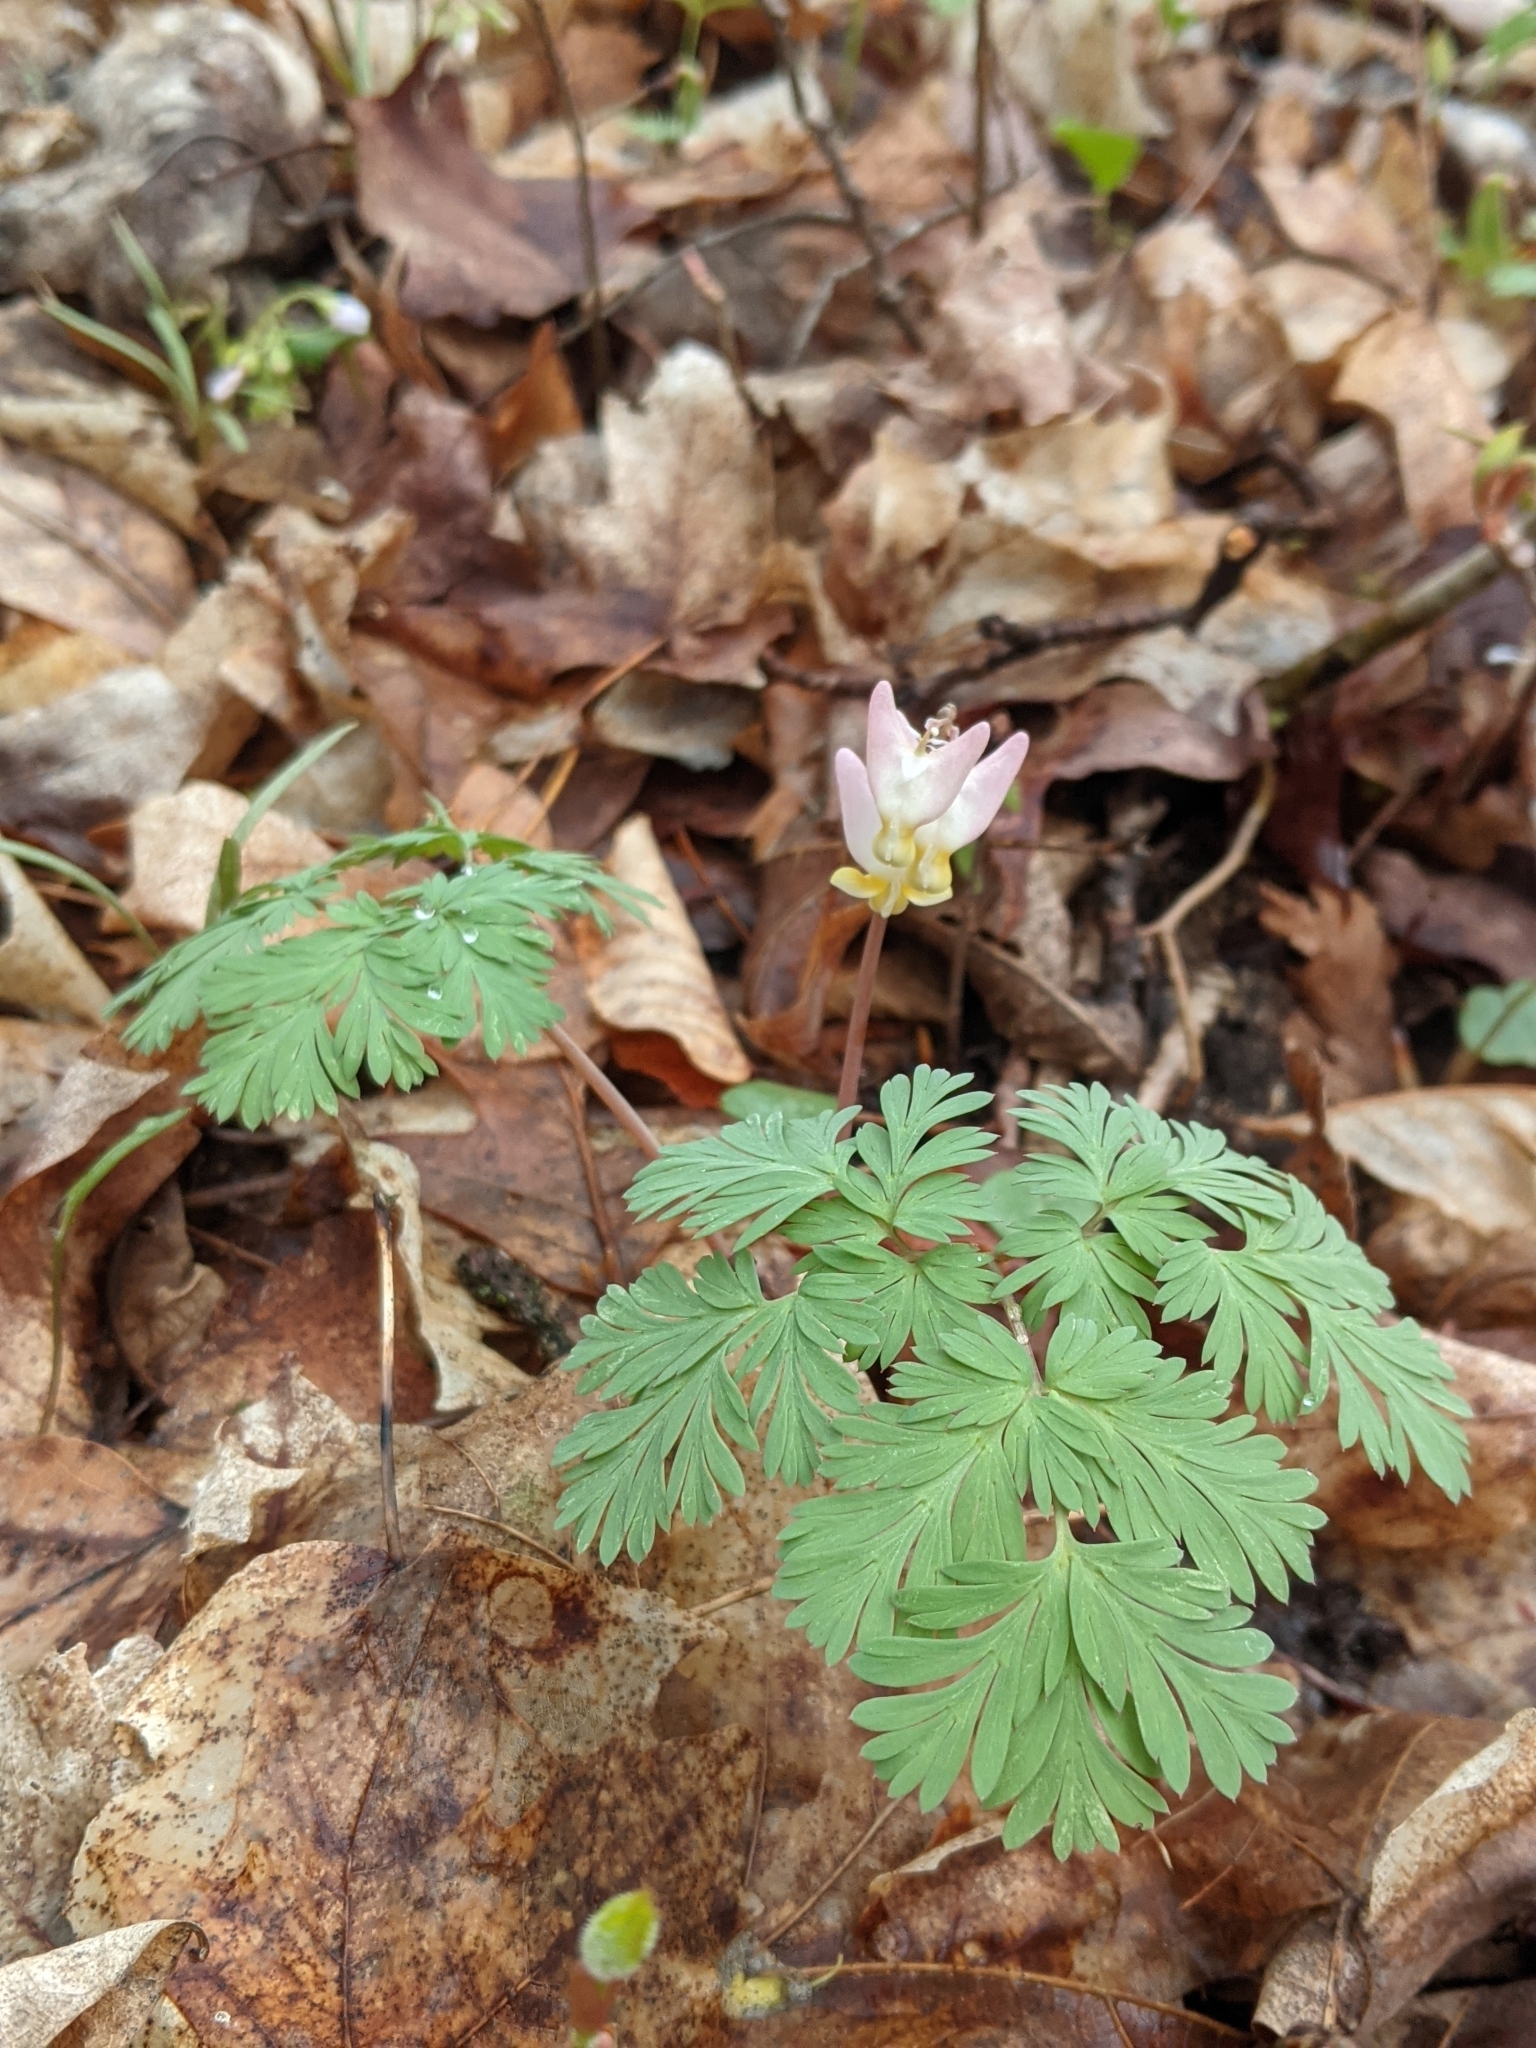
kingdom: Plantae
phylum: Tracheophyta
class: Magnoliopsida
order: Ranunculales
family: Papaveraceae
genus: Dicentra
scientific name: Dicentra cucullaria
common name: Dutchman's breeches
